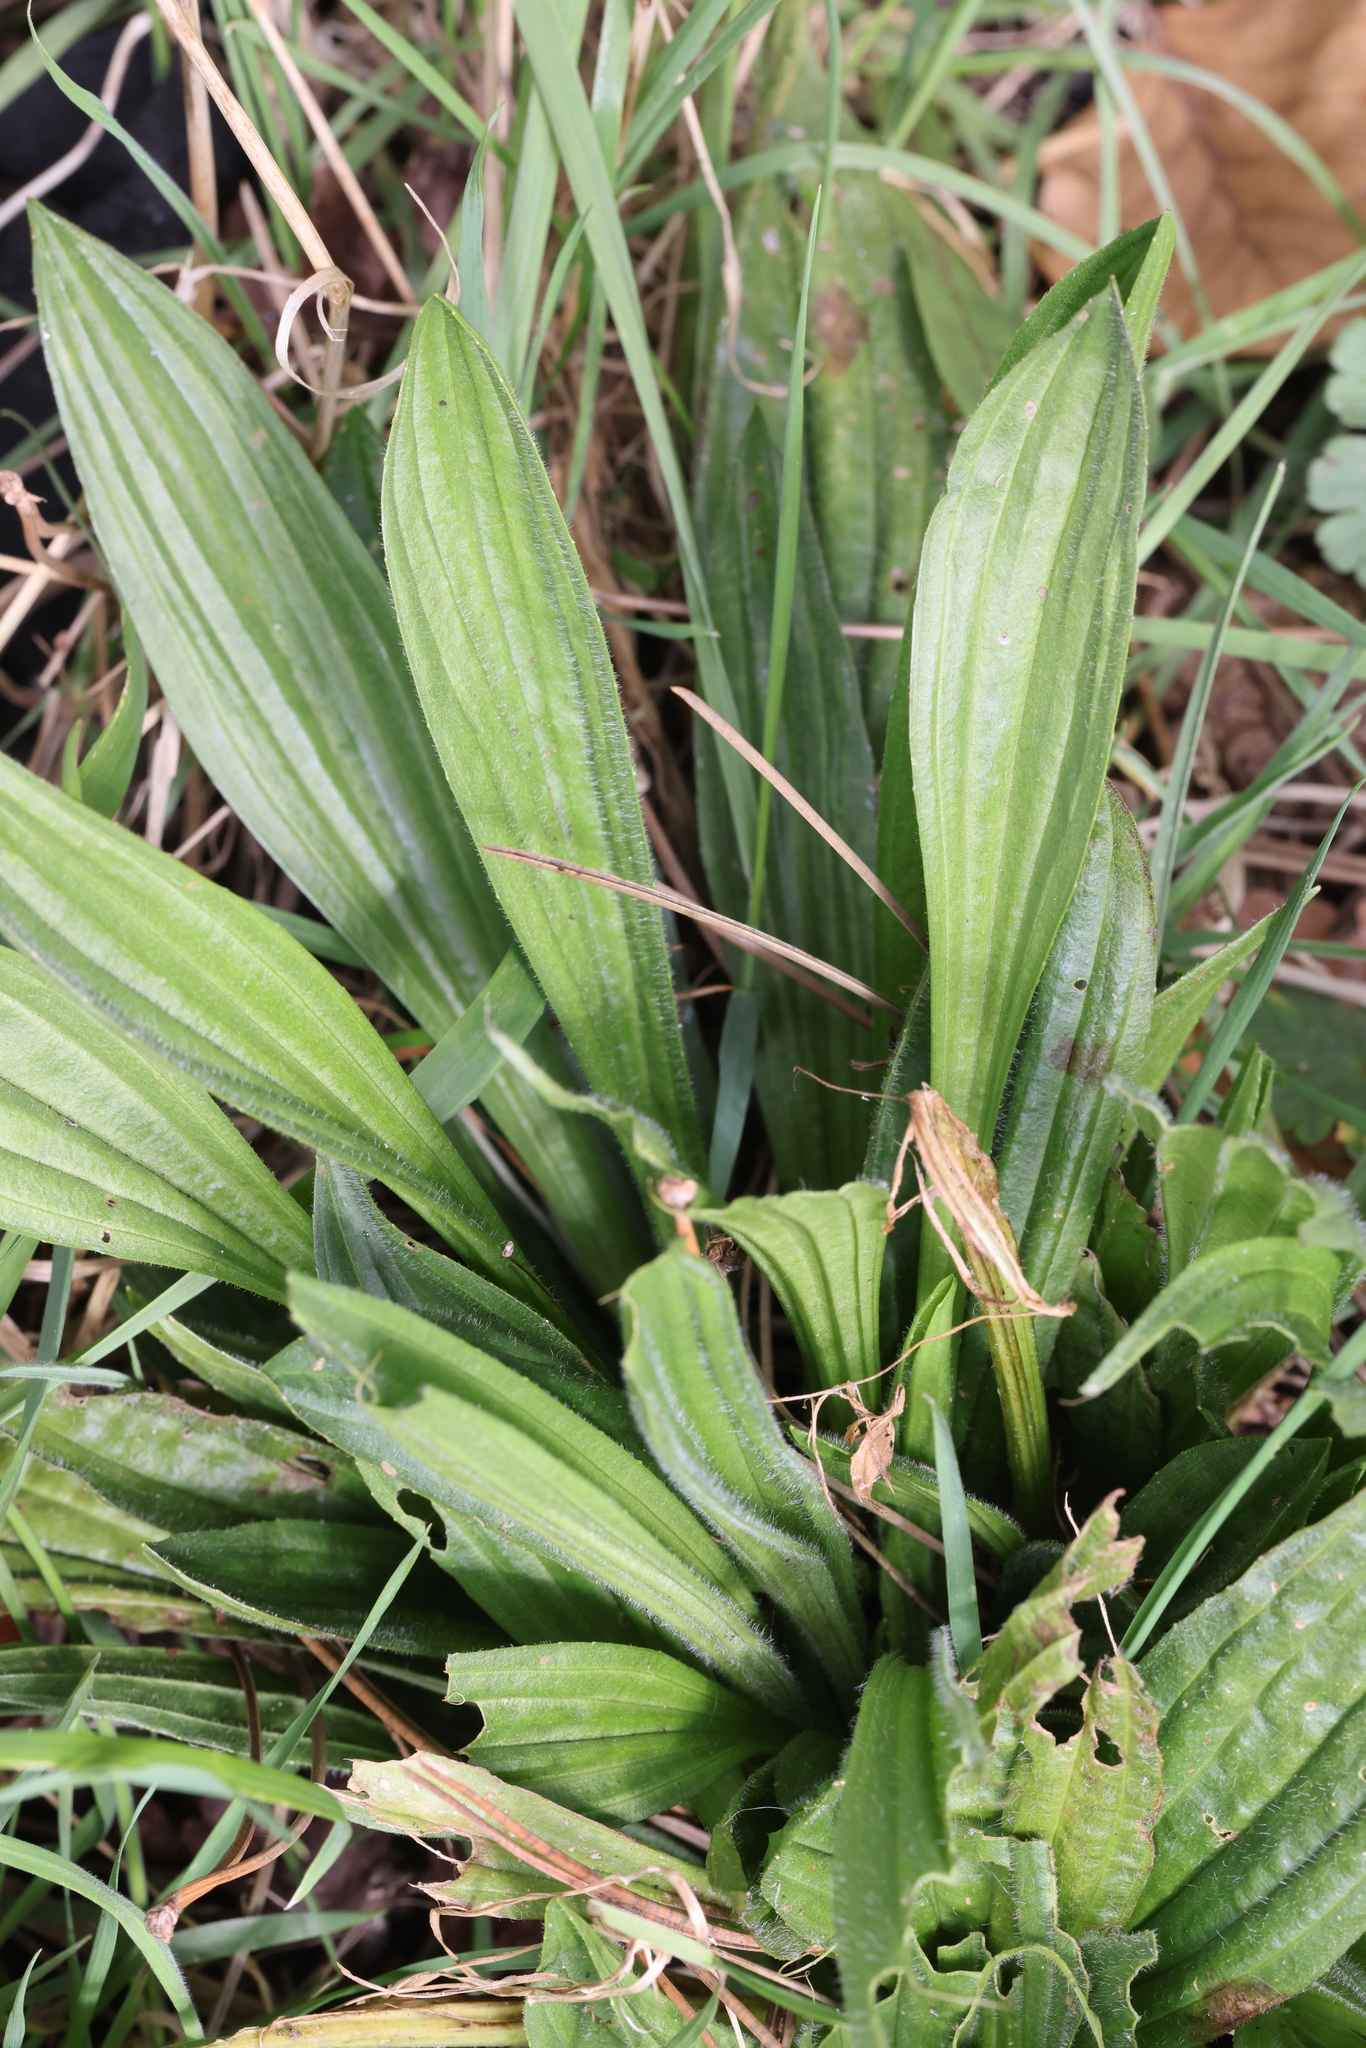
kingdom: Plantae
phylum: Tracheophyta
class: Magnoliopsida
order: Lamiales
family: Plantaginaceae
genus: Plantago
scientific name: Plantago lanceolata
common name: Ribwort plantain
